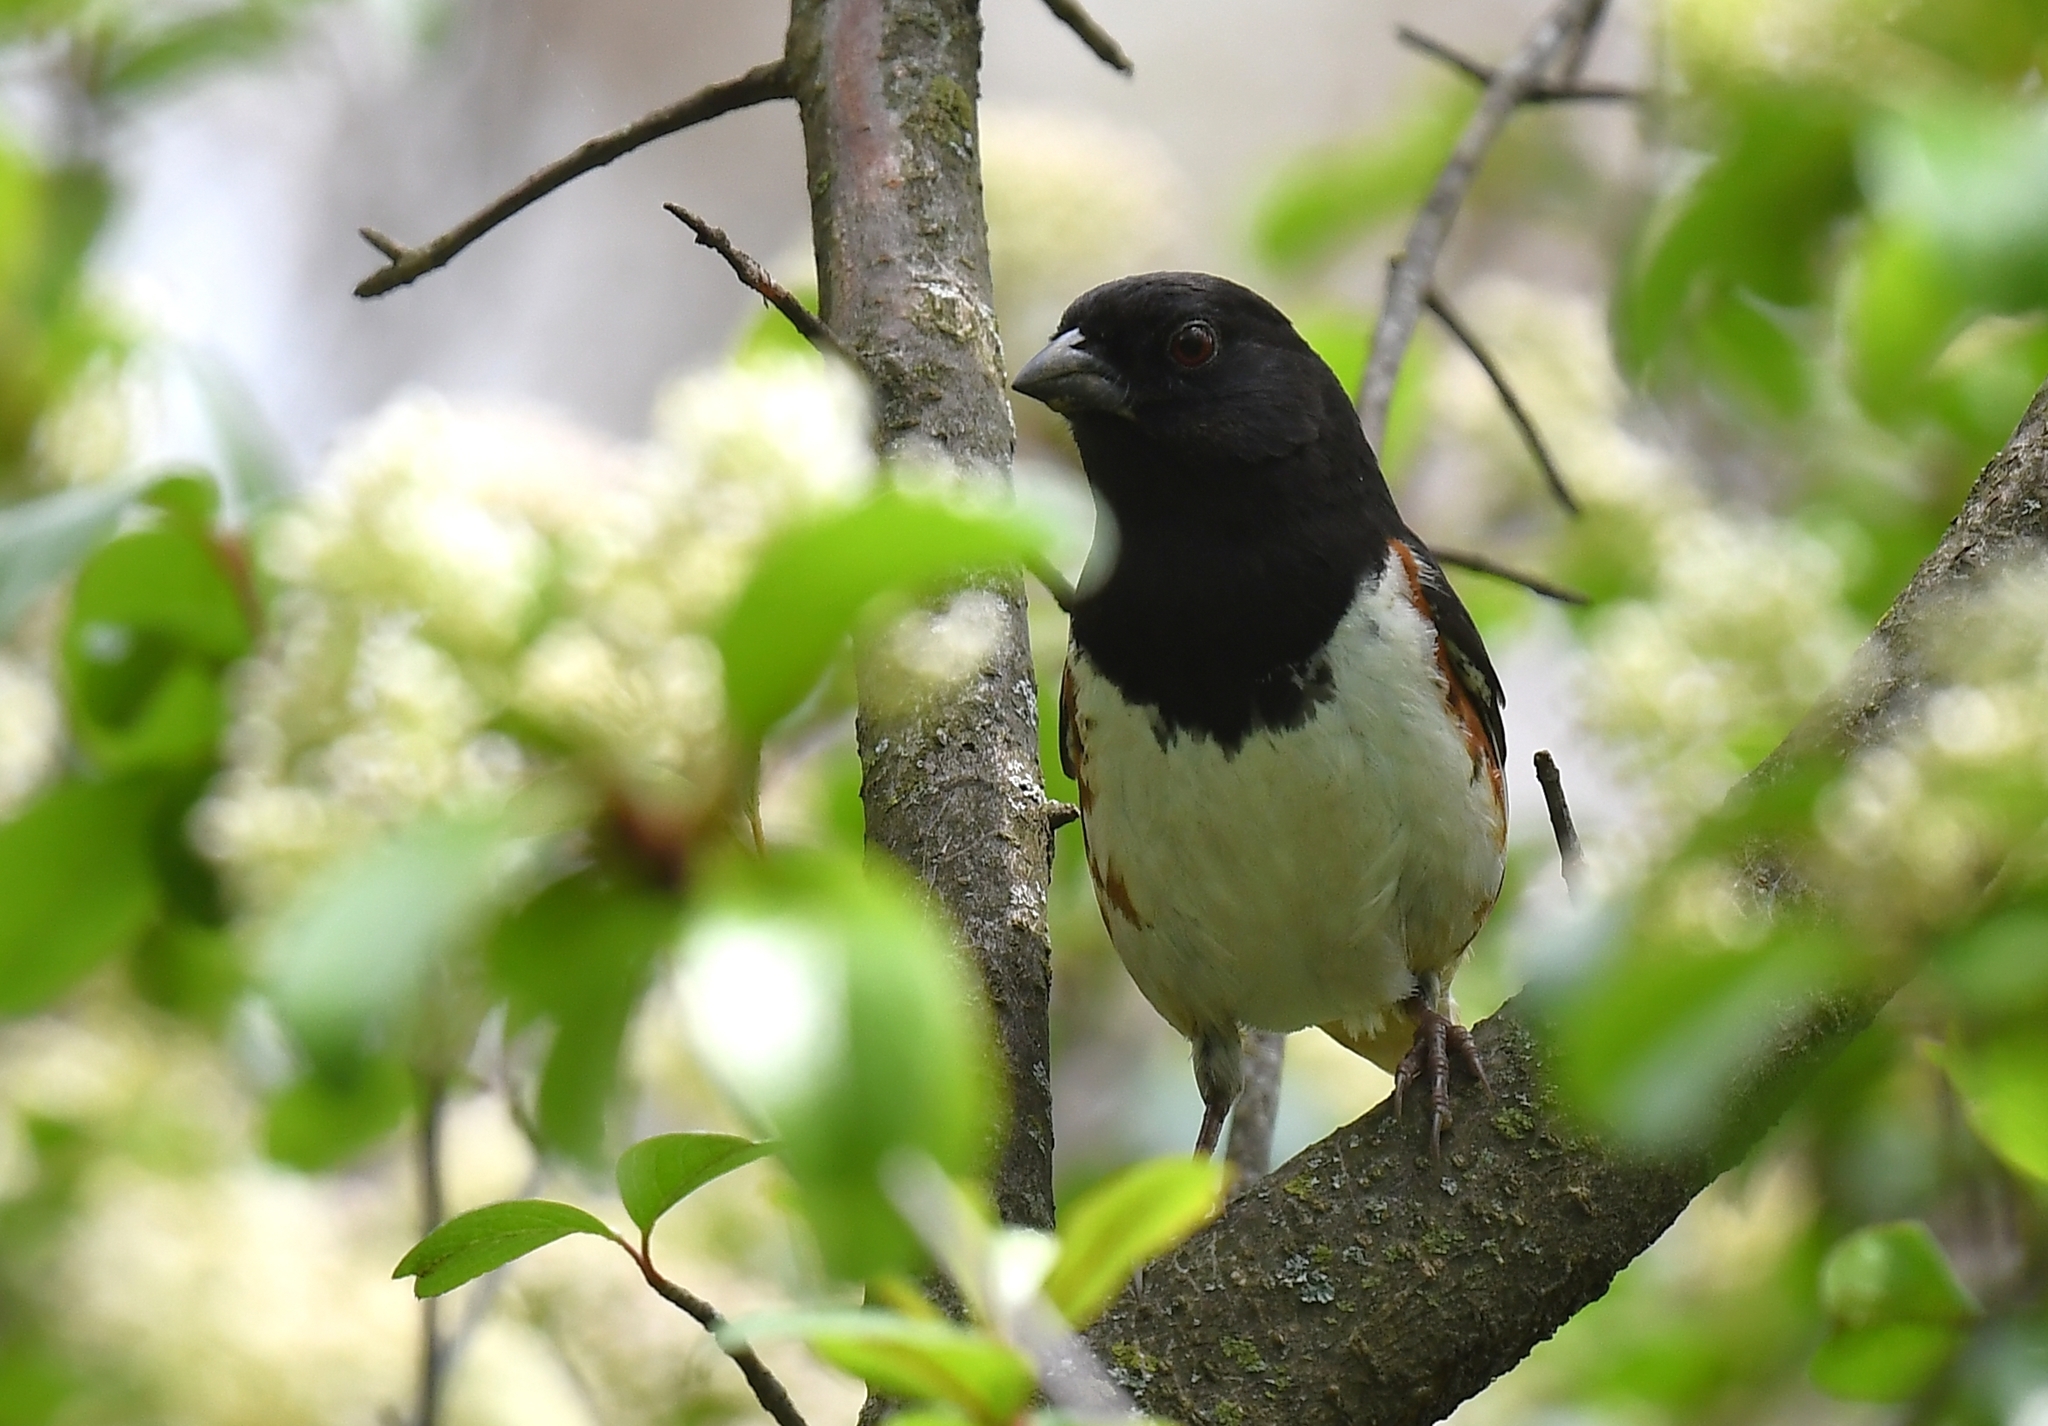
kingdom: Animalia
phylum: Chordata
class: Aves
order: Passeriformes
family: Passerellidae
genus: Pipilo
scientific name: Pipilo erythrophthalmus
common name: Eastern towhee
